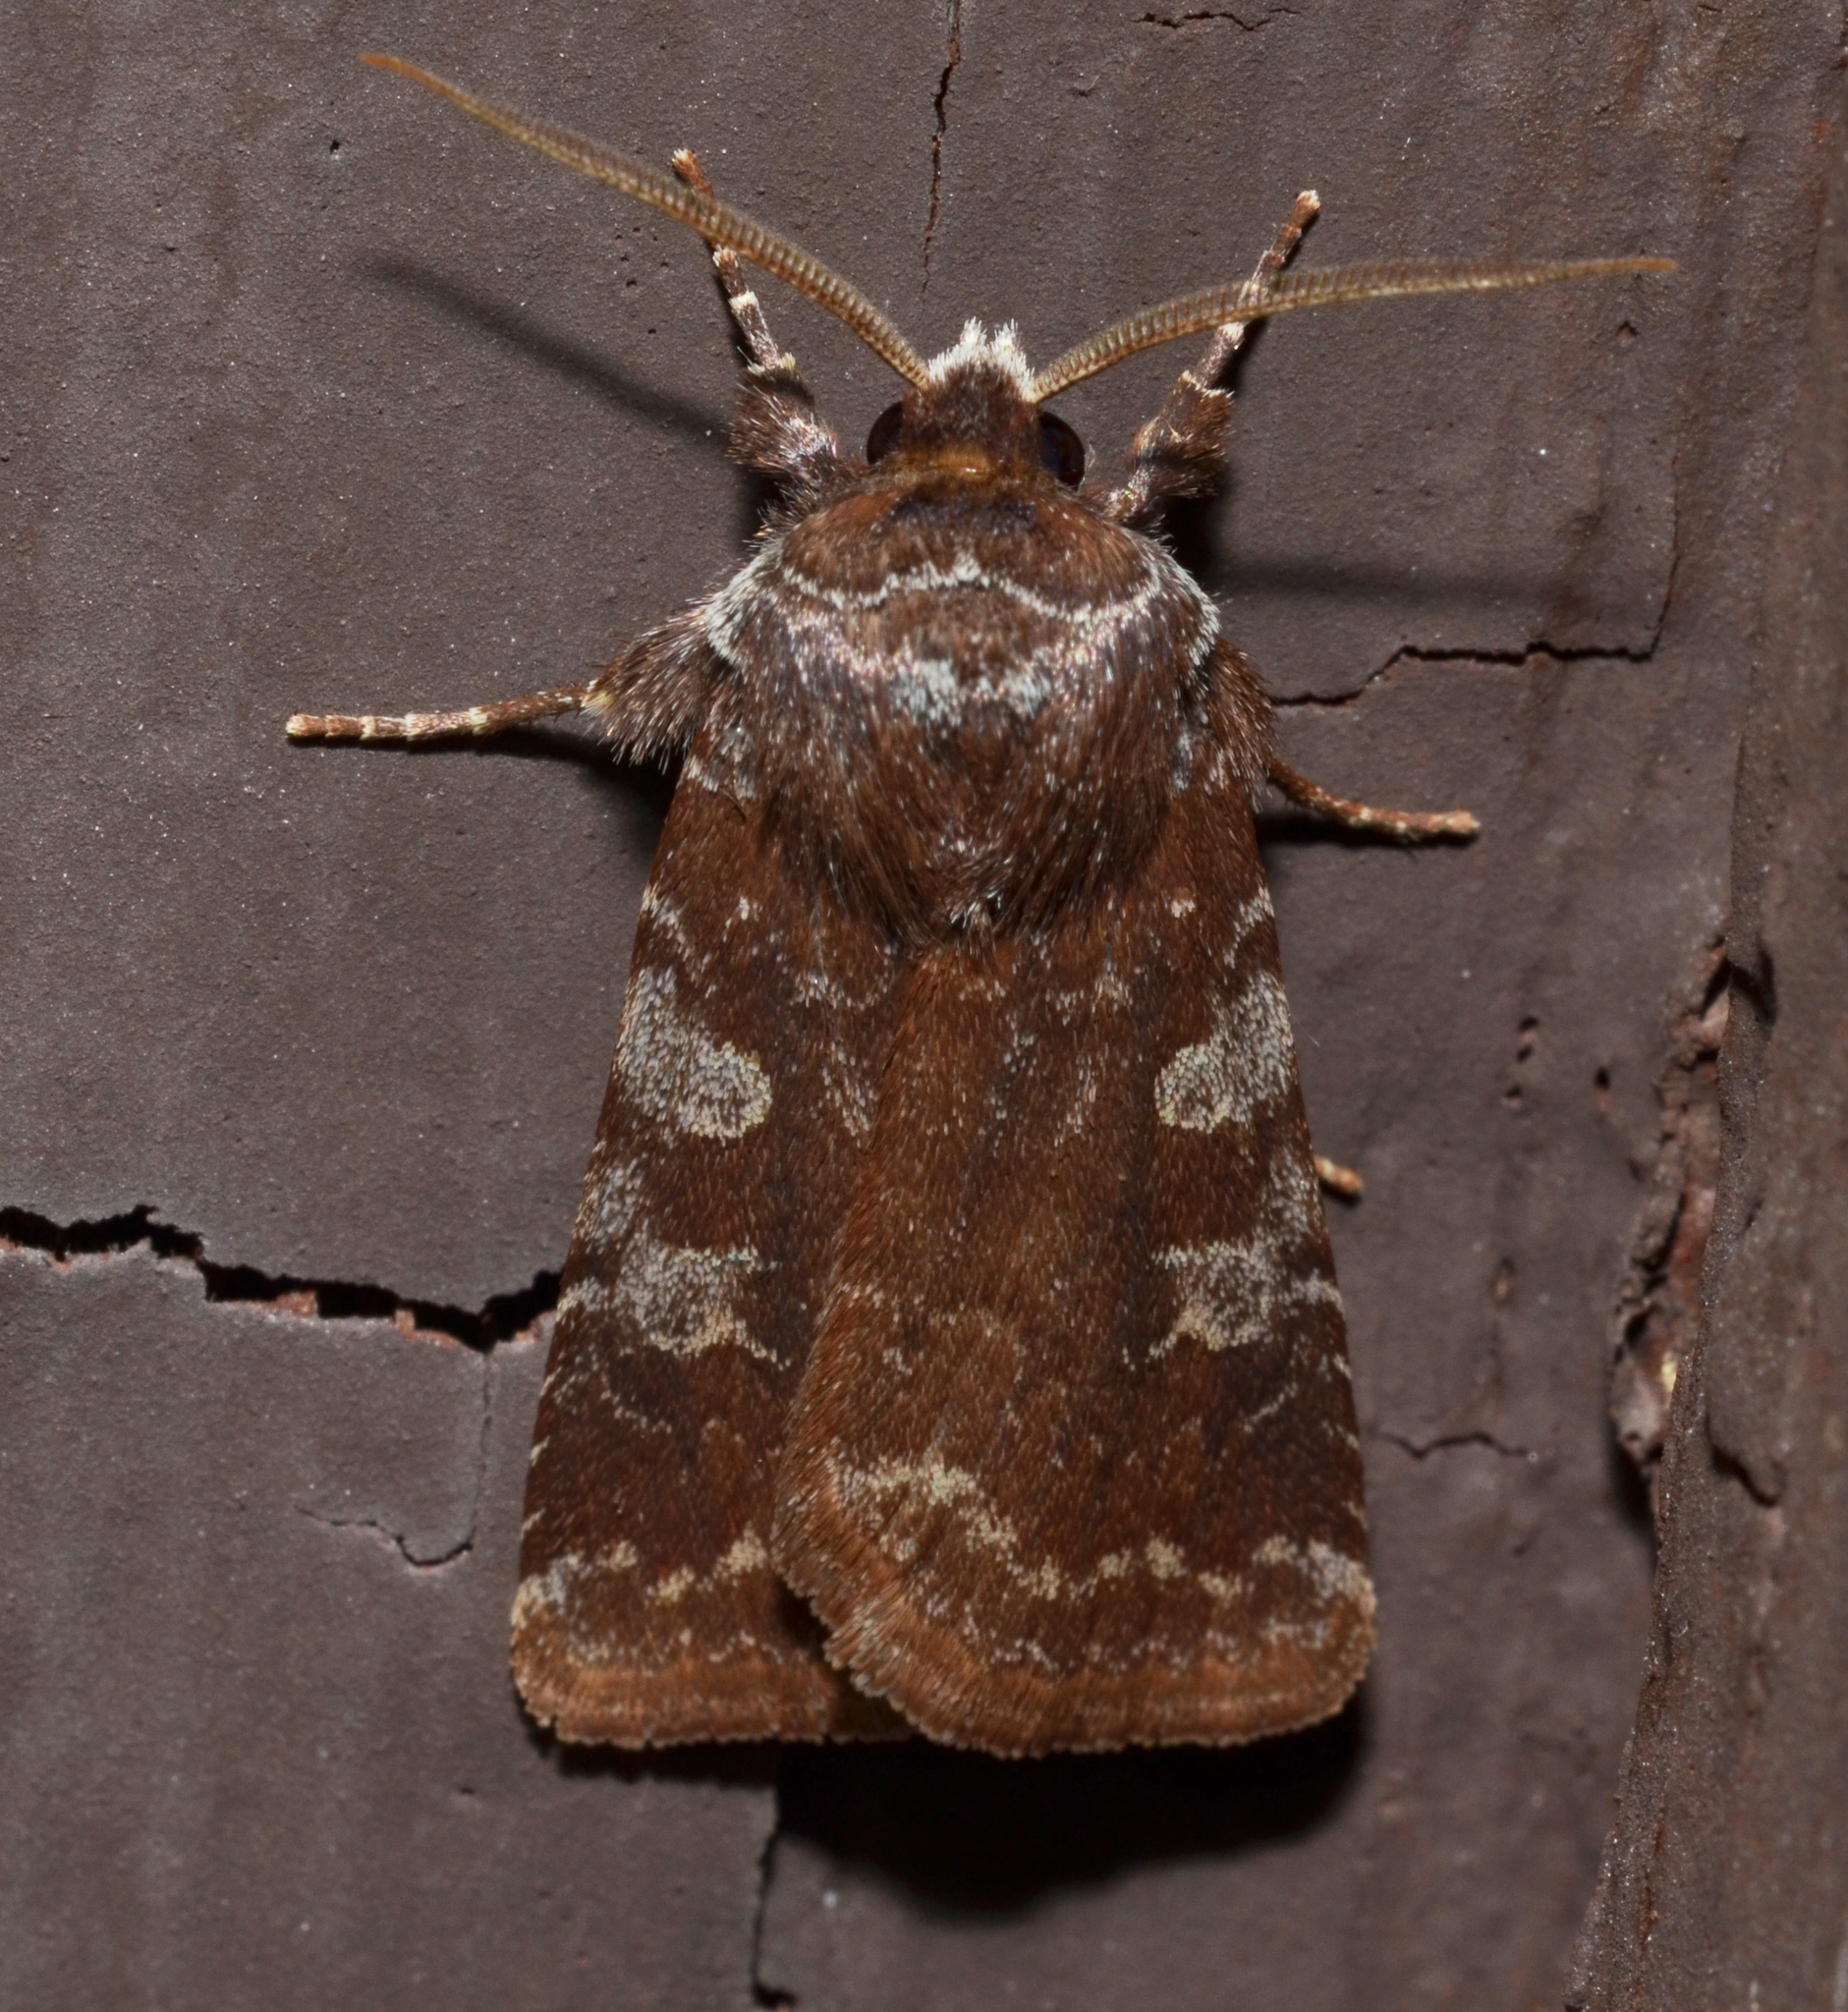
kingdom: Animalia
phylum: Arthropoda
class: Insecta
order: Lepidoptera
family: Noctuidae
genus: Cerastis
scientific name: Cerastis tenebrifera
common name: Reddish speckled dart
